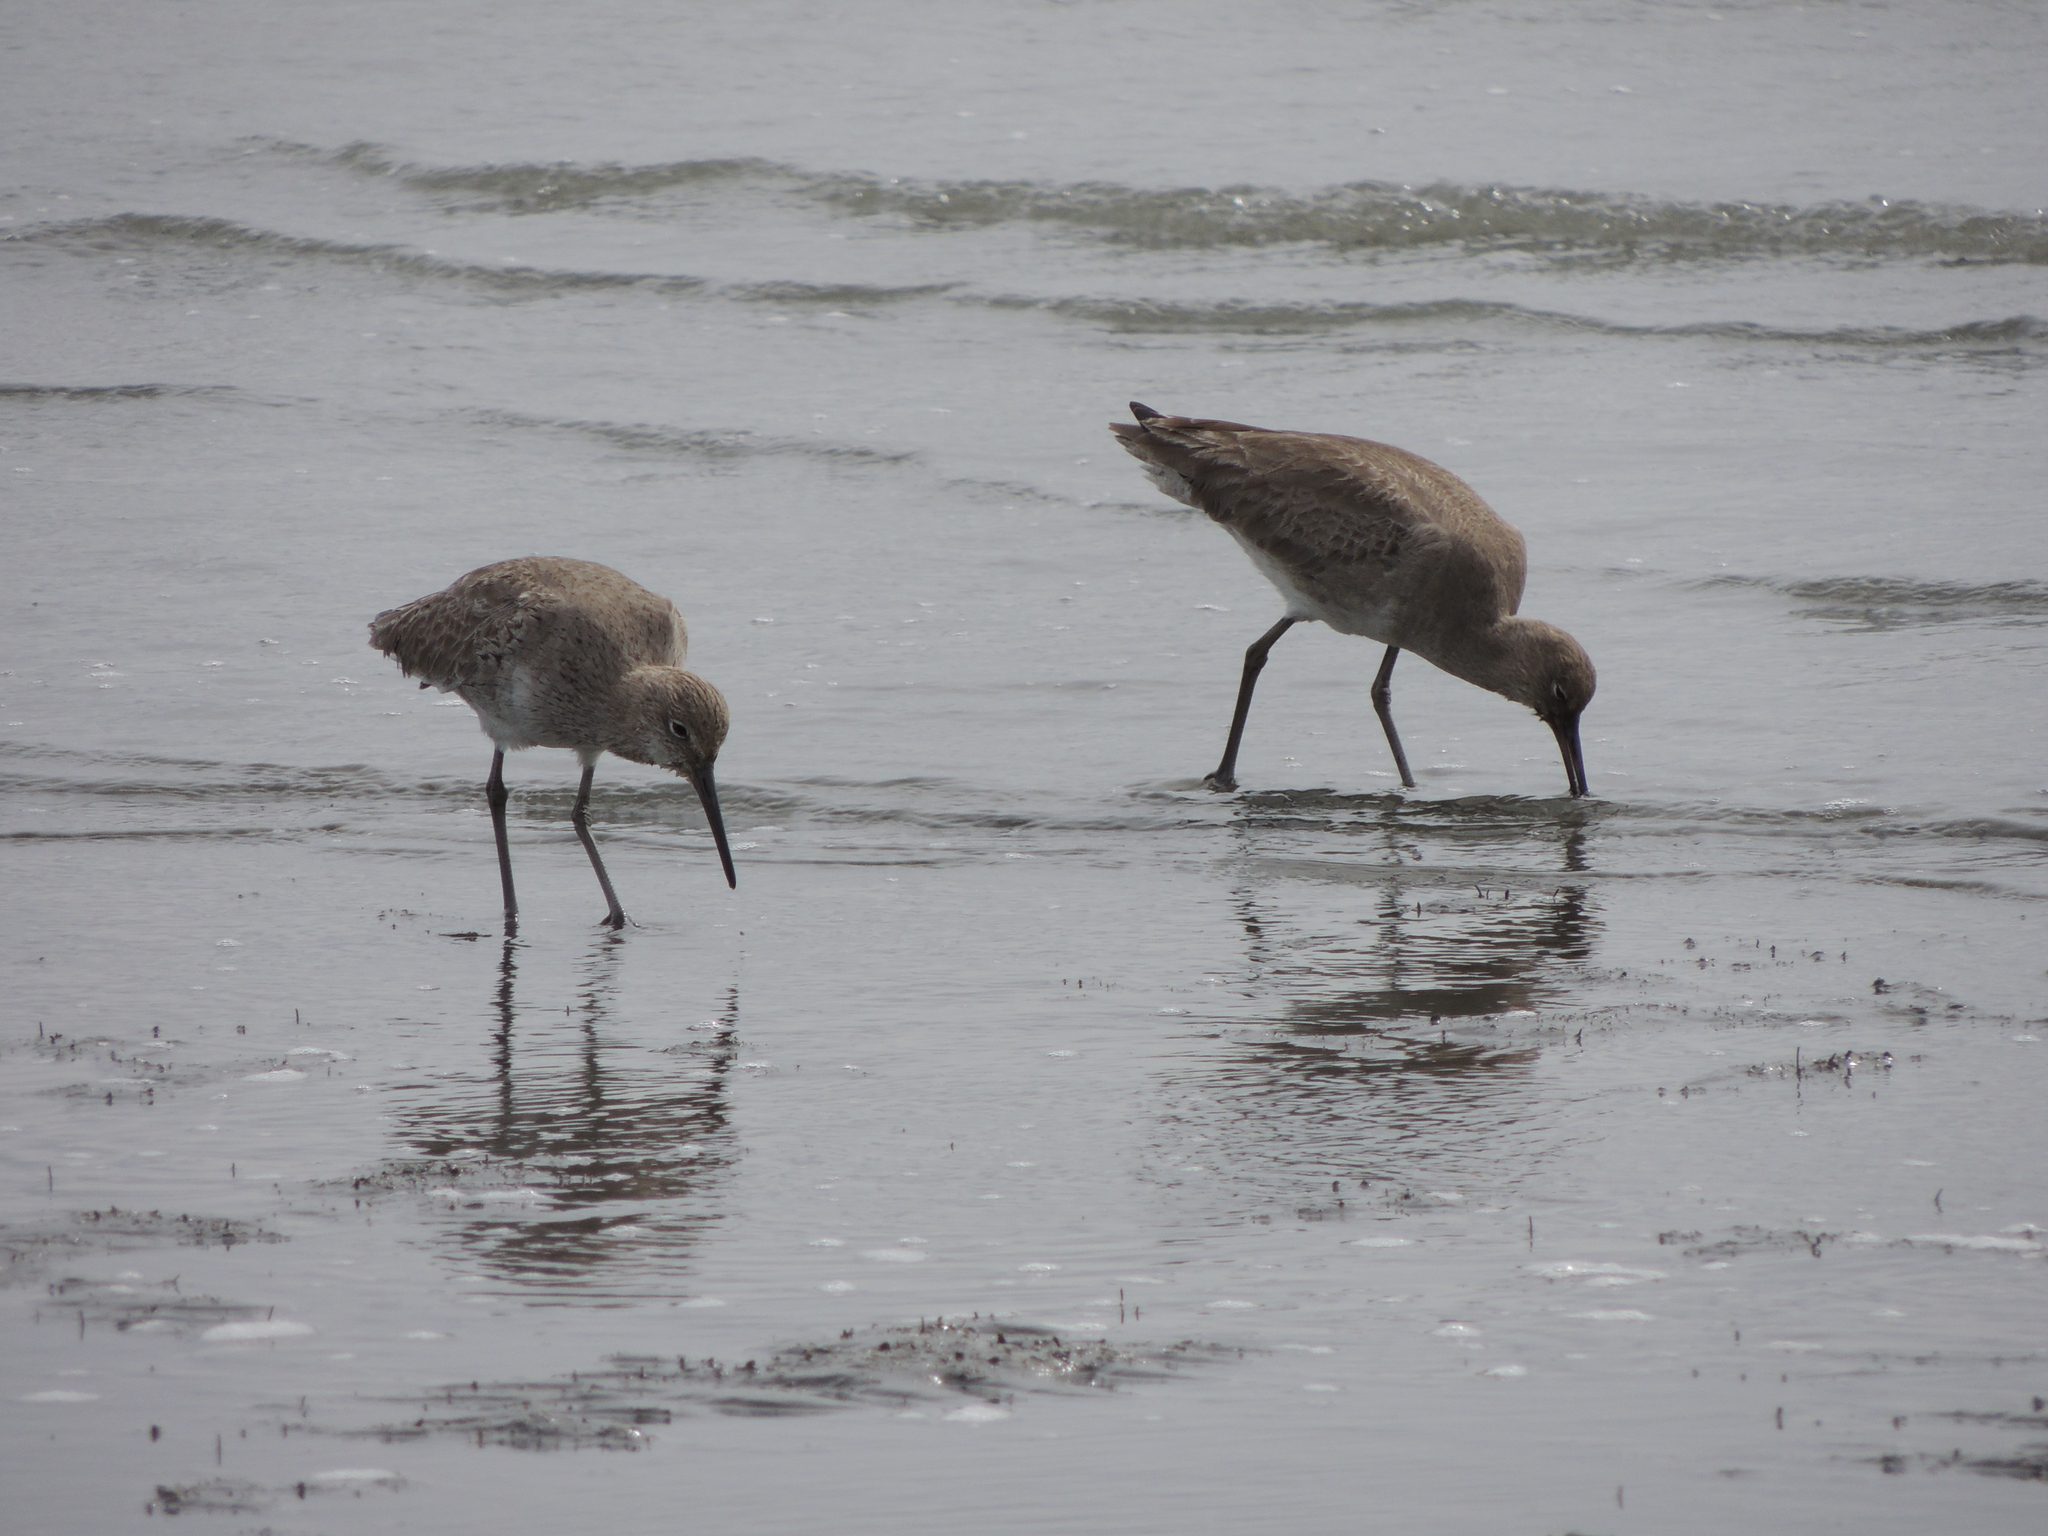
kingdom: Animalia
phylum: Chordata
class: Aves
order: Charadriiformes
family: Scolopacidae
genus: Tringa
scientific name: Tringa semipalmata
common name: Willet
